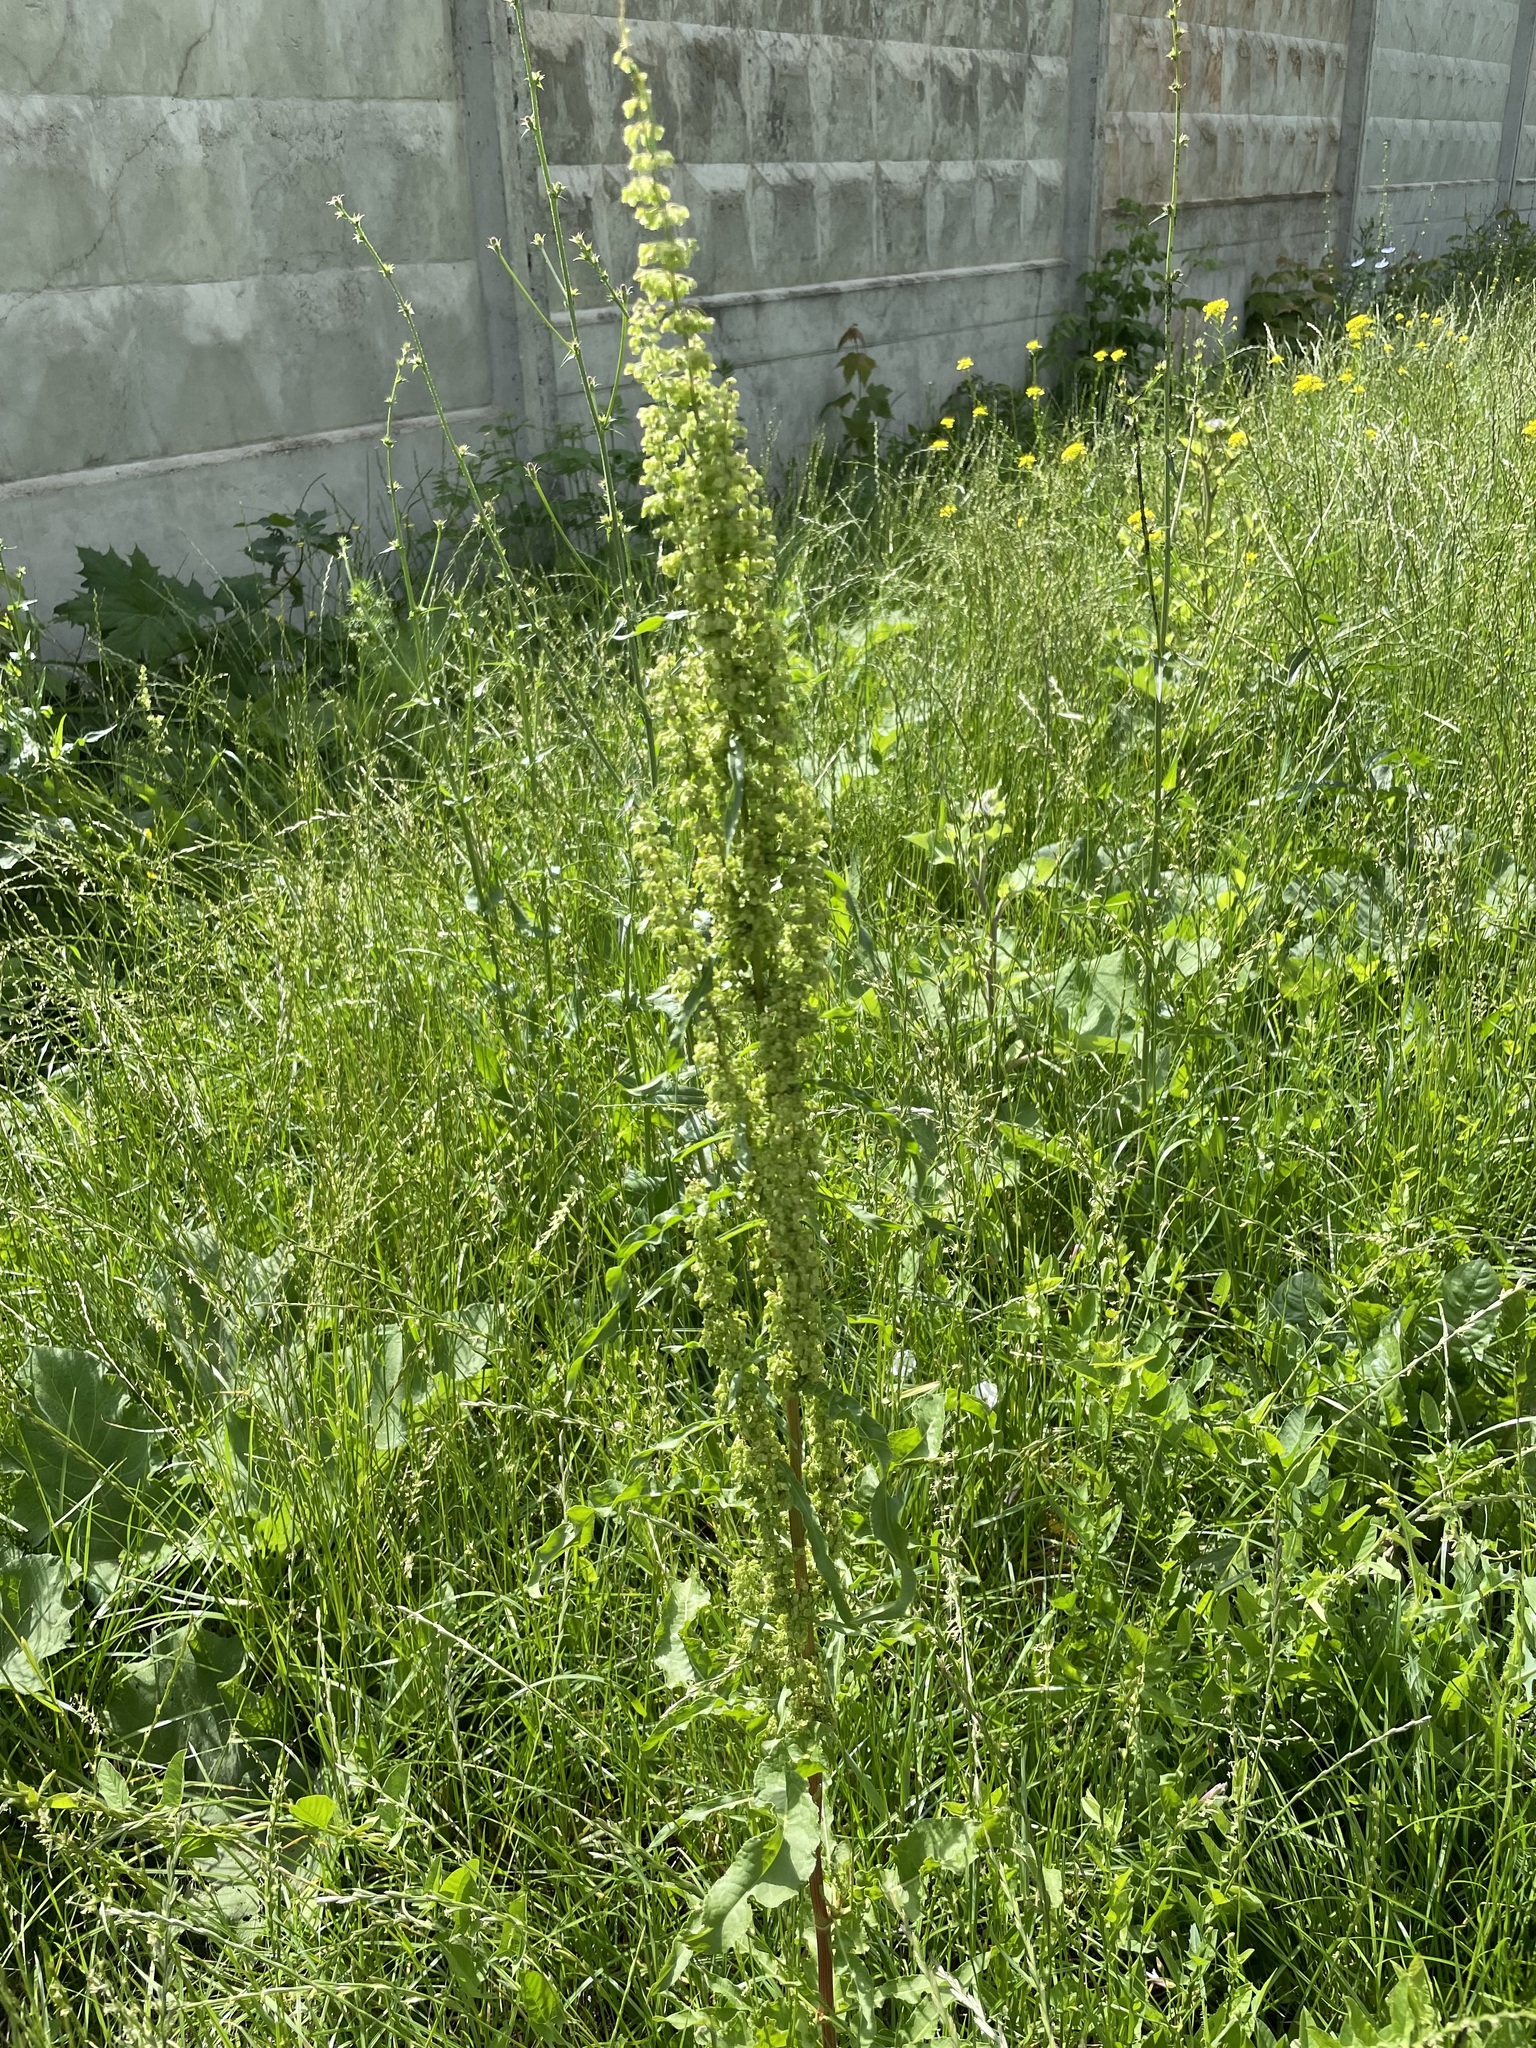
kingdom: Plantae
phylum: Tracheophyta
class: Magnoliopsida
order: Caryophyllales
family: Polygonaceae
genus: Rumex
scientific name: Rumex crispus
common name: Curled dock
